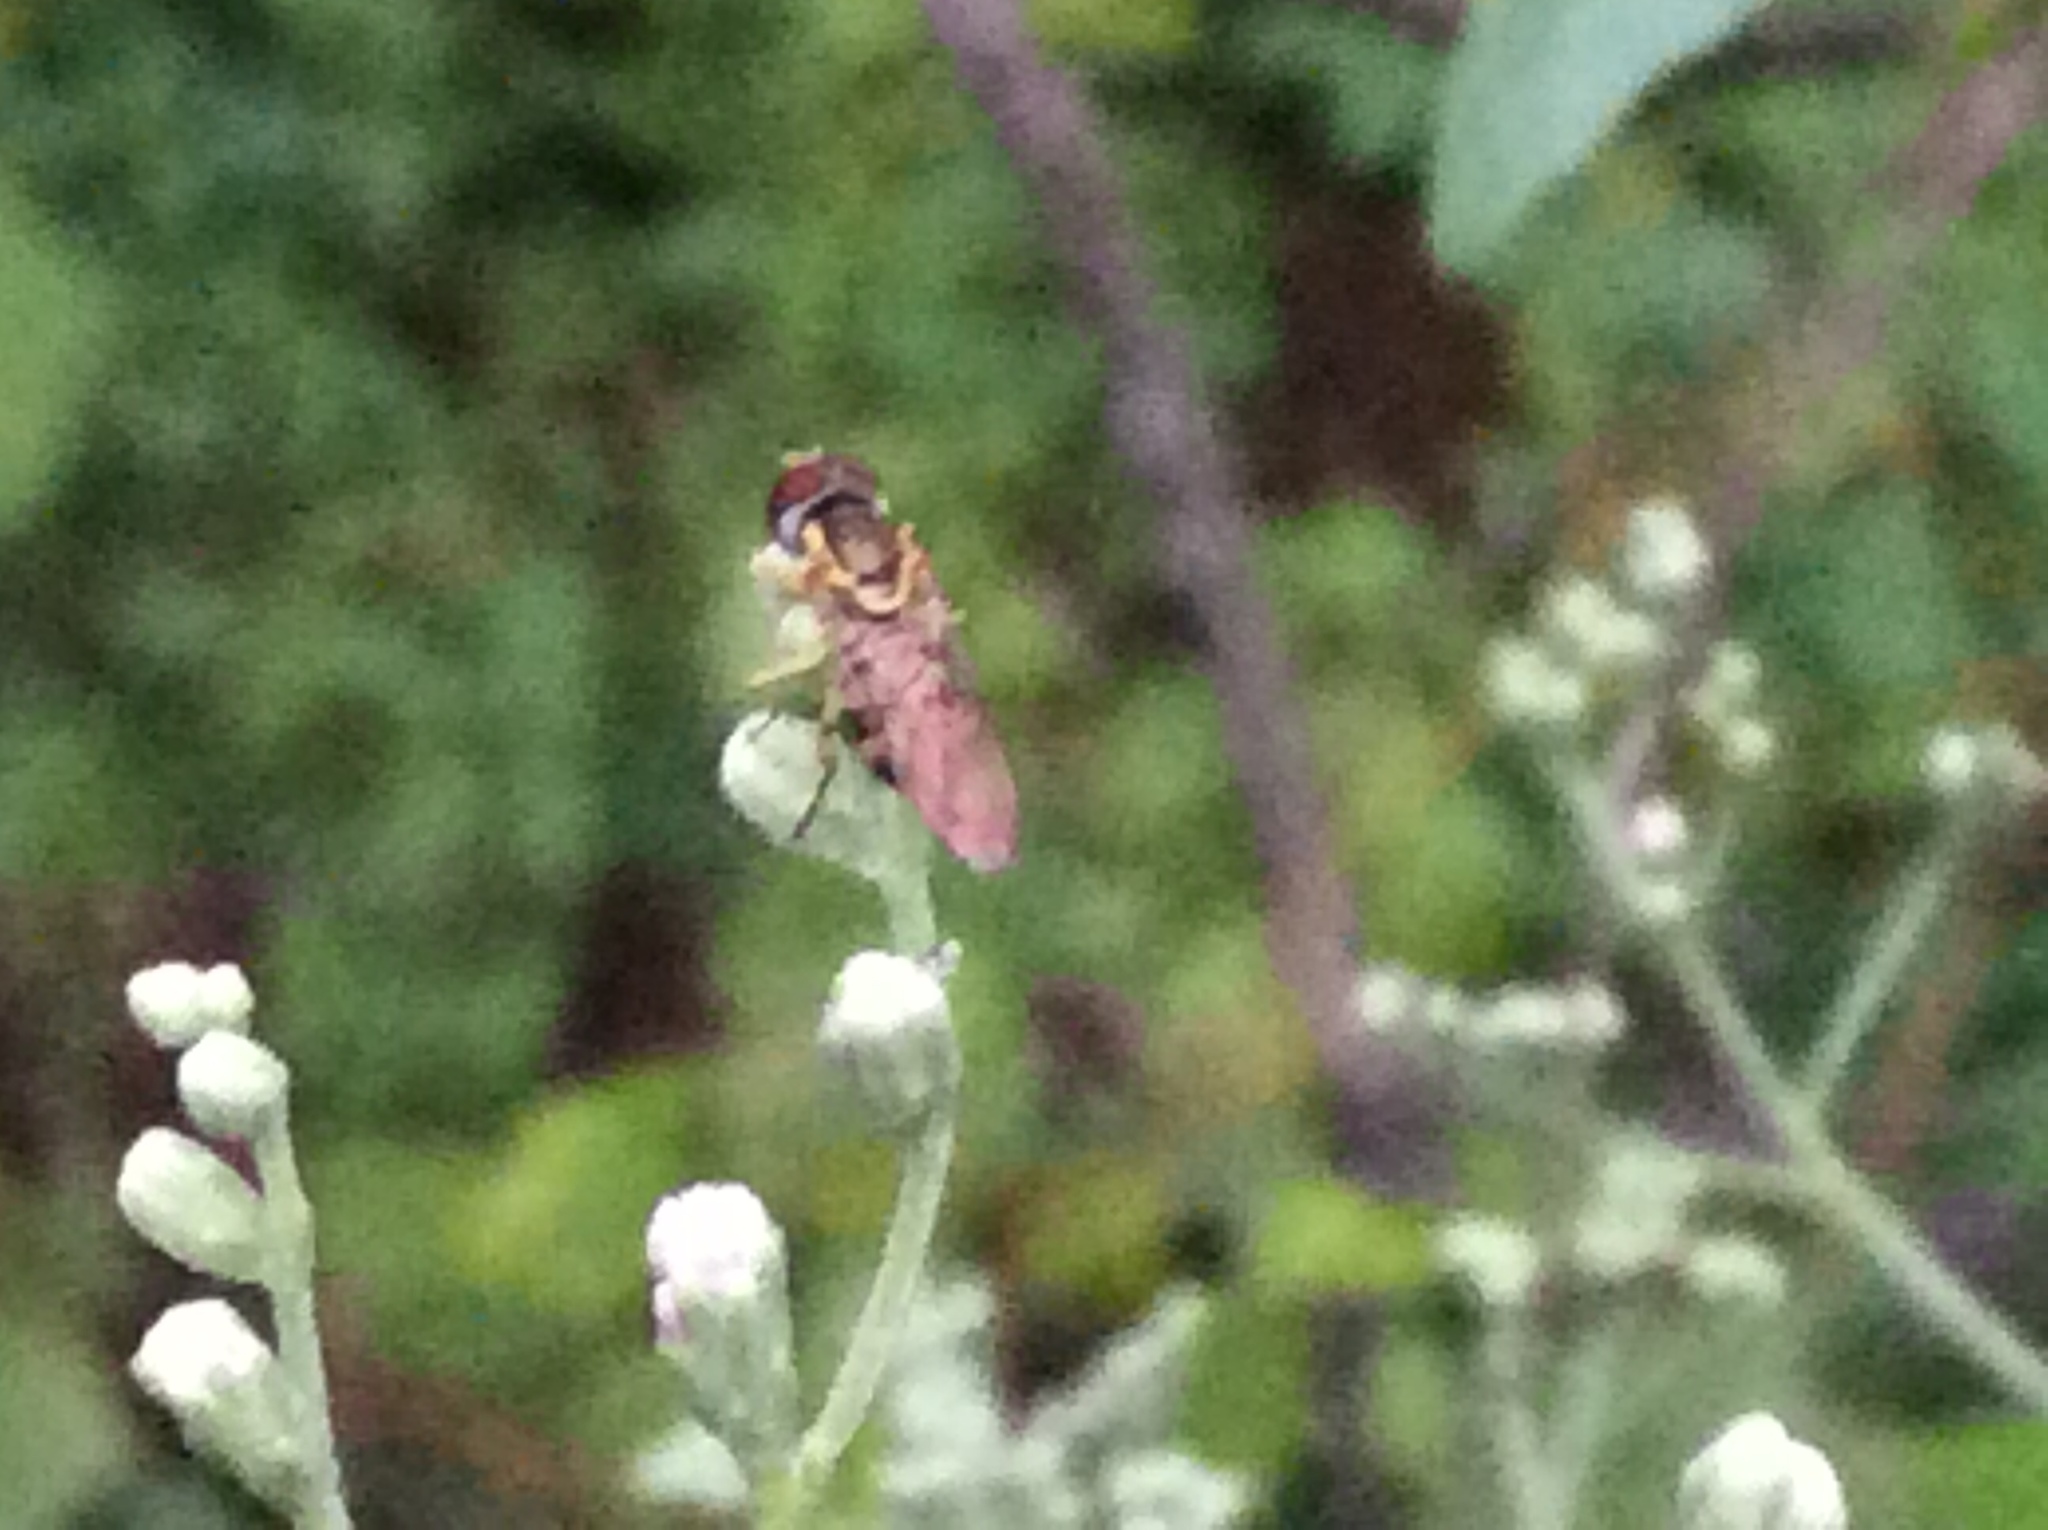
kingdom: Animalia
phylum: Arthropoda
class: Insecta
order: Diptera
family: Syrphidae
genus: Toxomerus
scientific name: Toxomerus geminatus
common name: Eastern calligrapher
